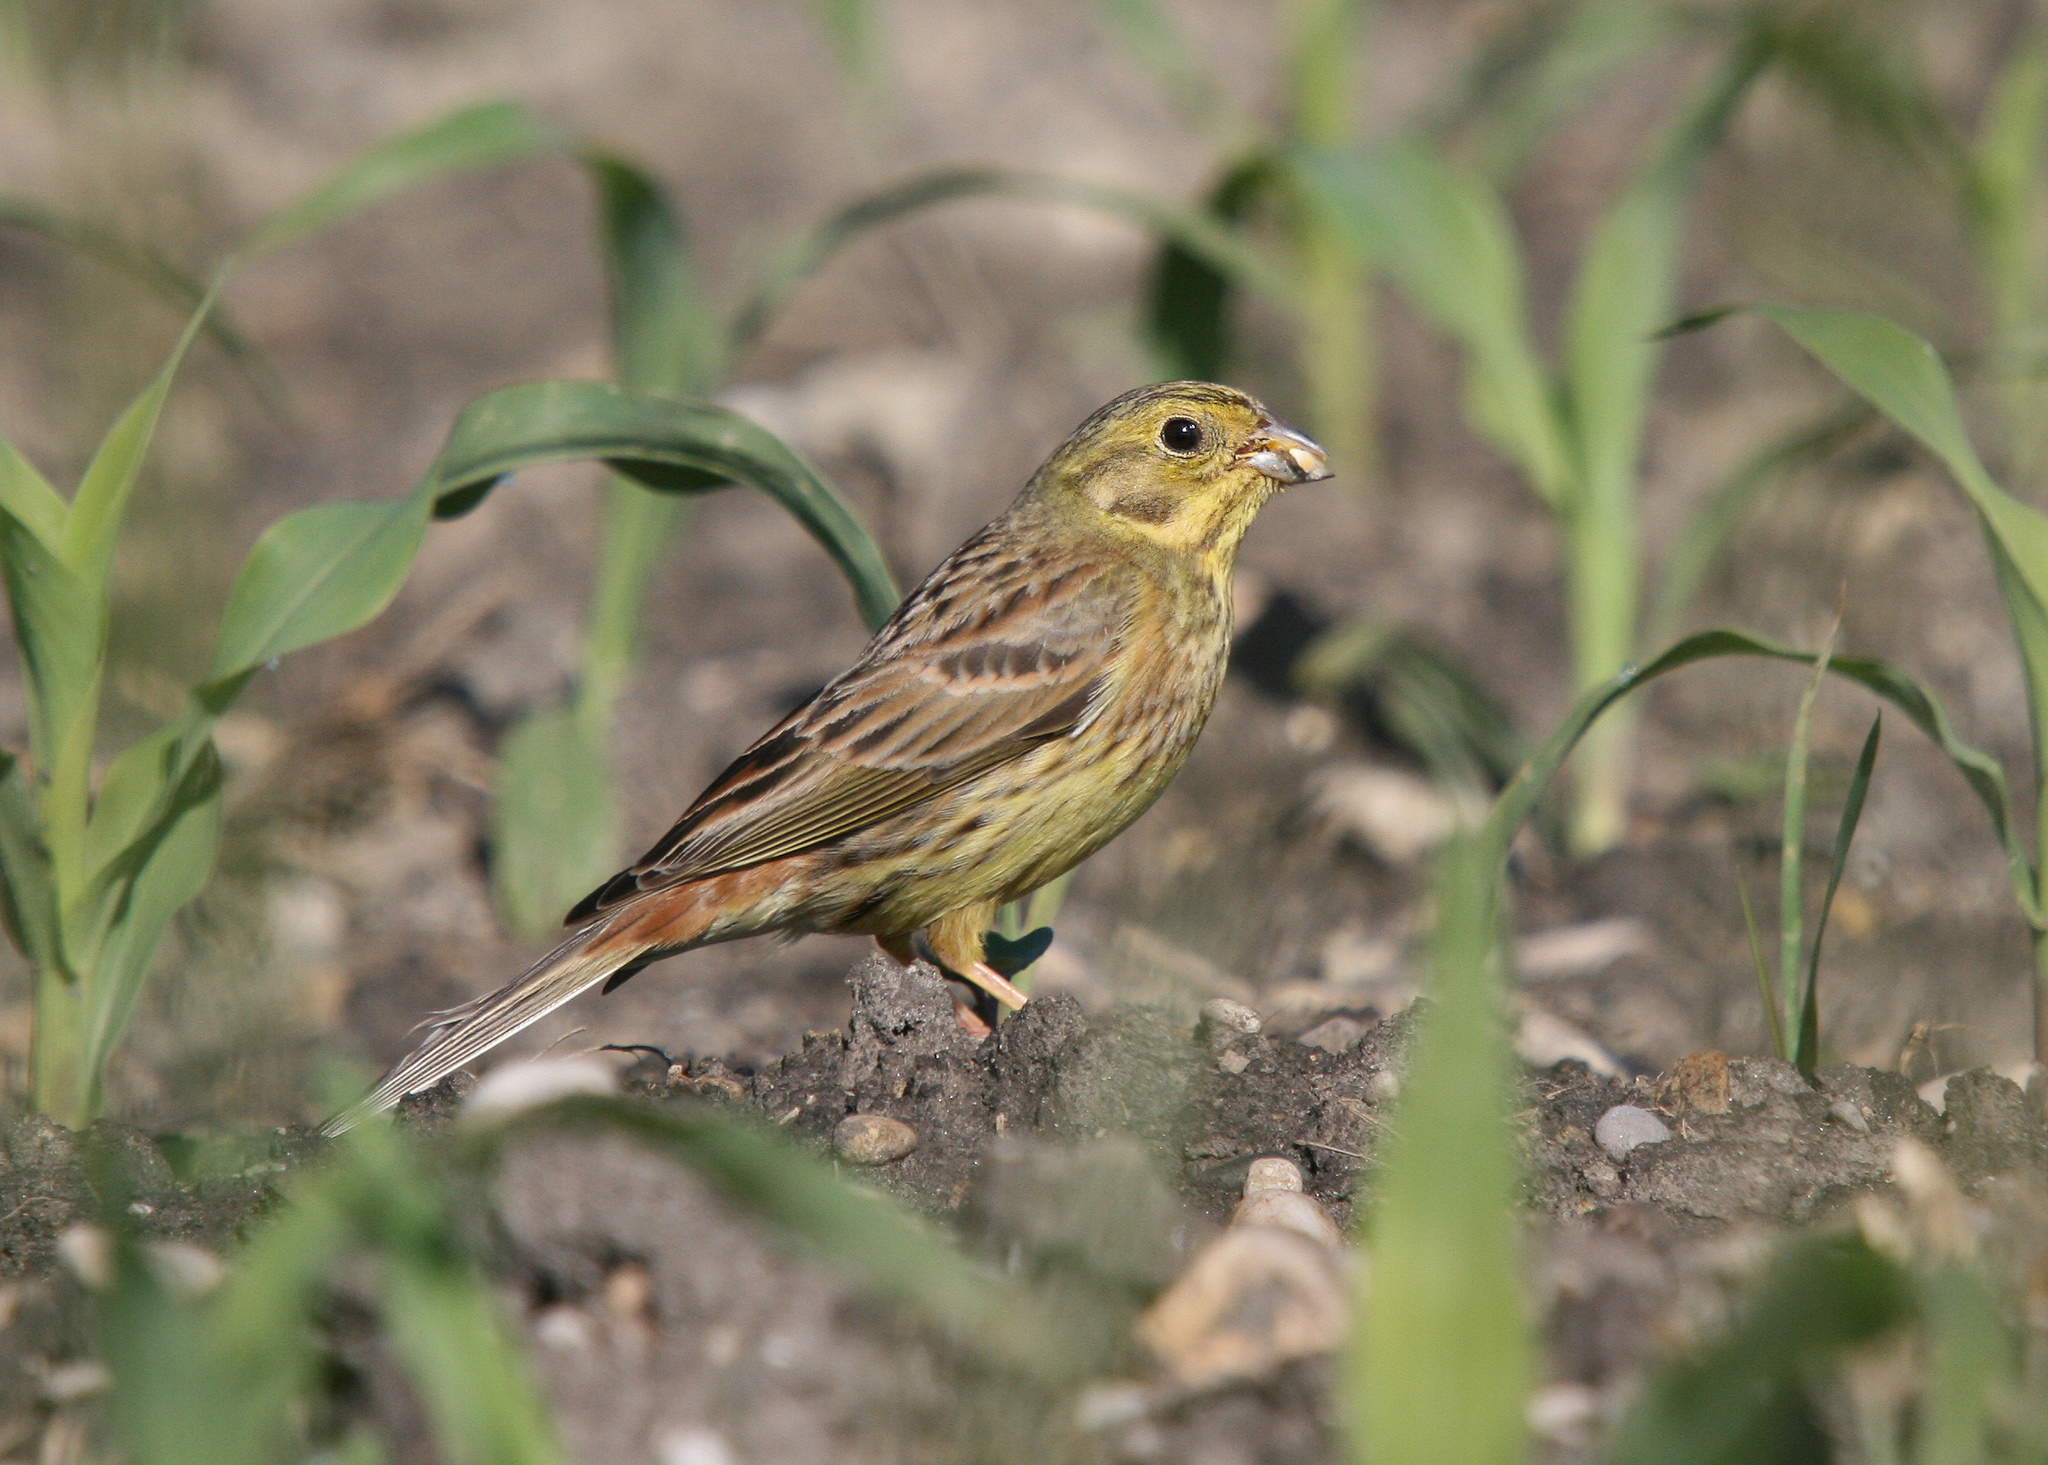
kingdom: Animalia
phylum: Chordata
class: Aves
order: Passeriformes
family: Emberizidae
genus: Emberiza
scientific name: Emberiza citrinella
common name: Yellowhammer
